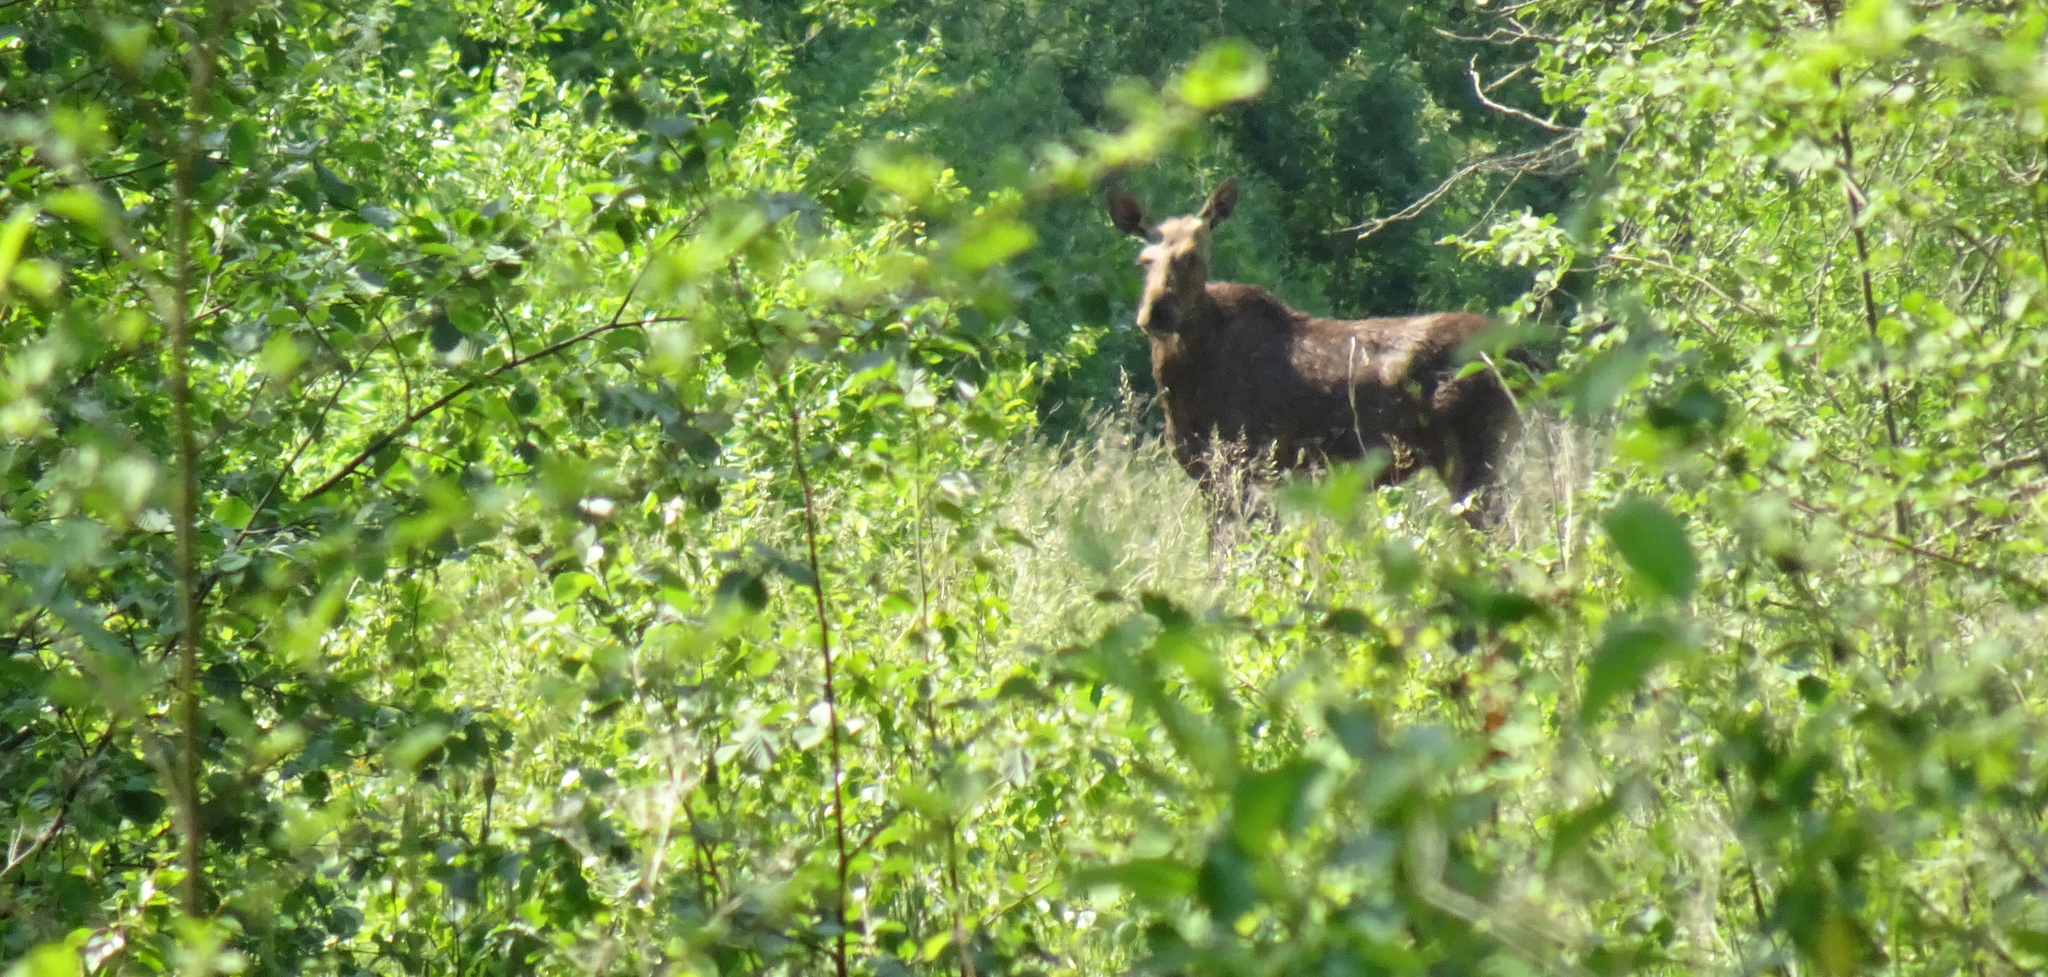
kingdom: Animalia
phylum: Chordata
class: Mammalia
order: Artiodactyla
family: Cervidae
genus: Alces
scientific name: Alces alces
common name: Moose
